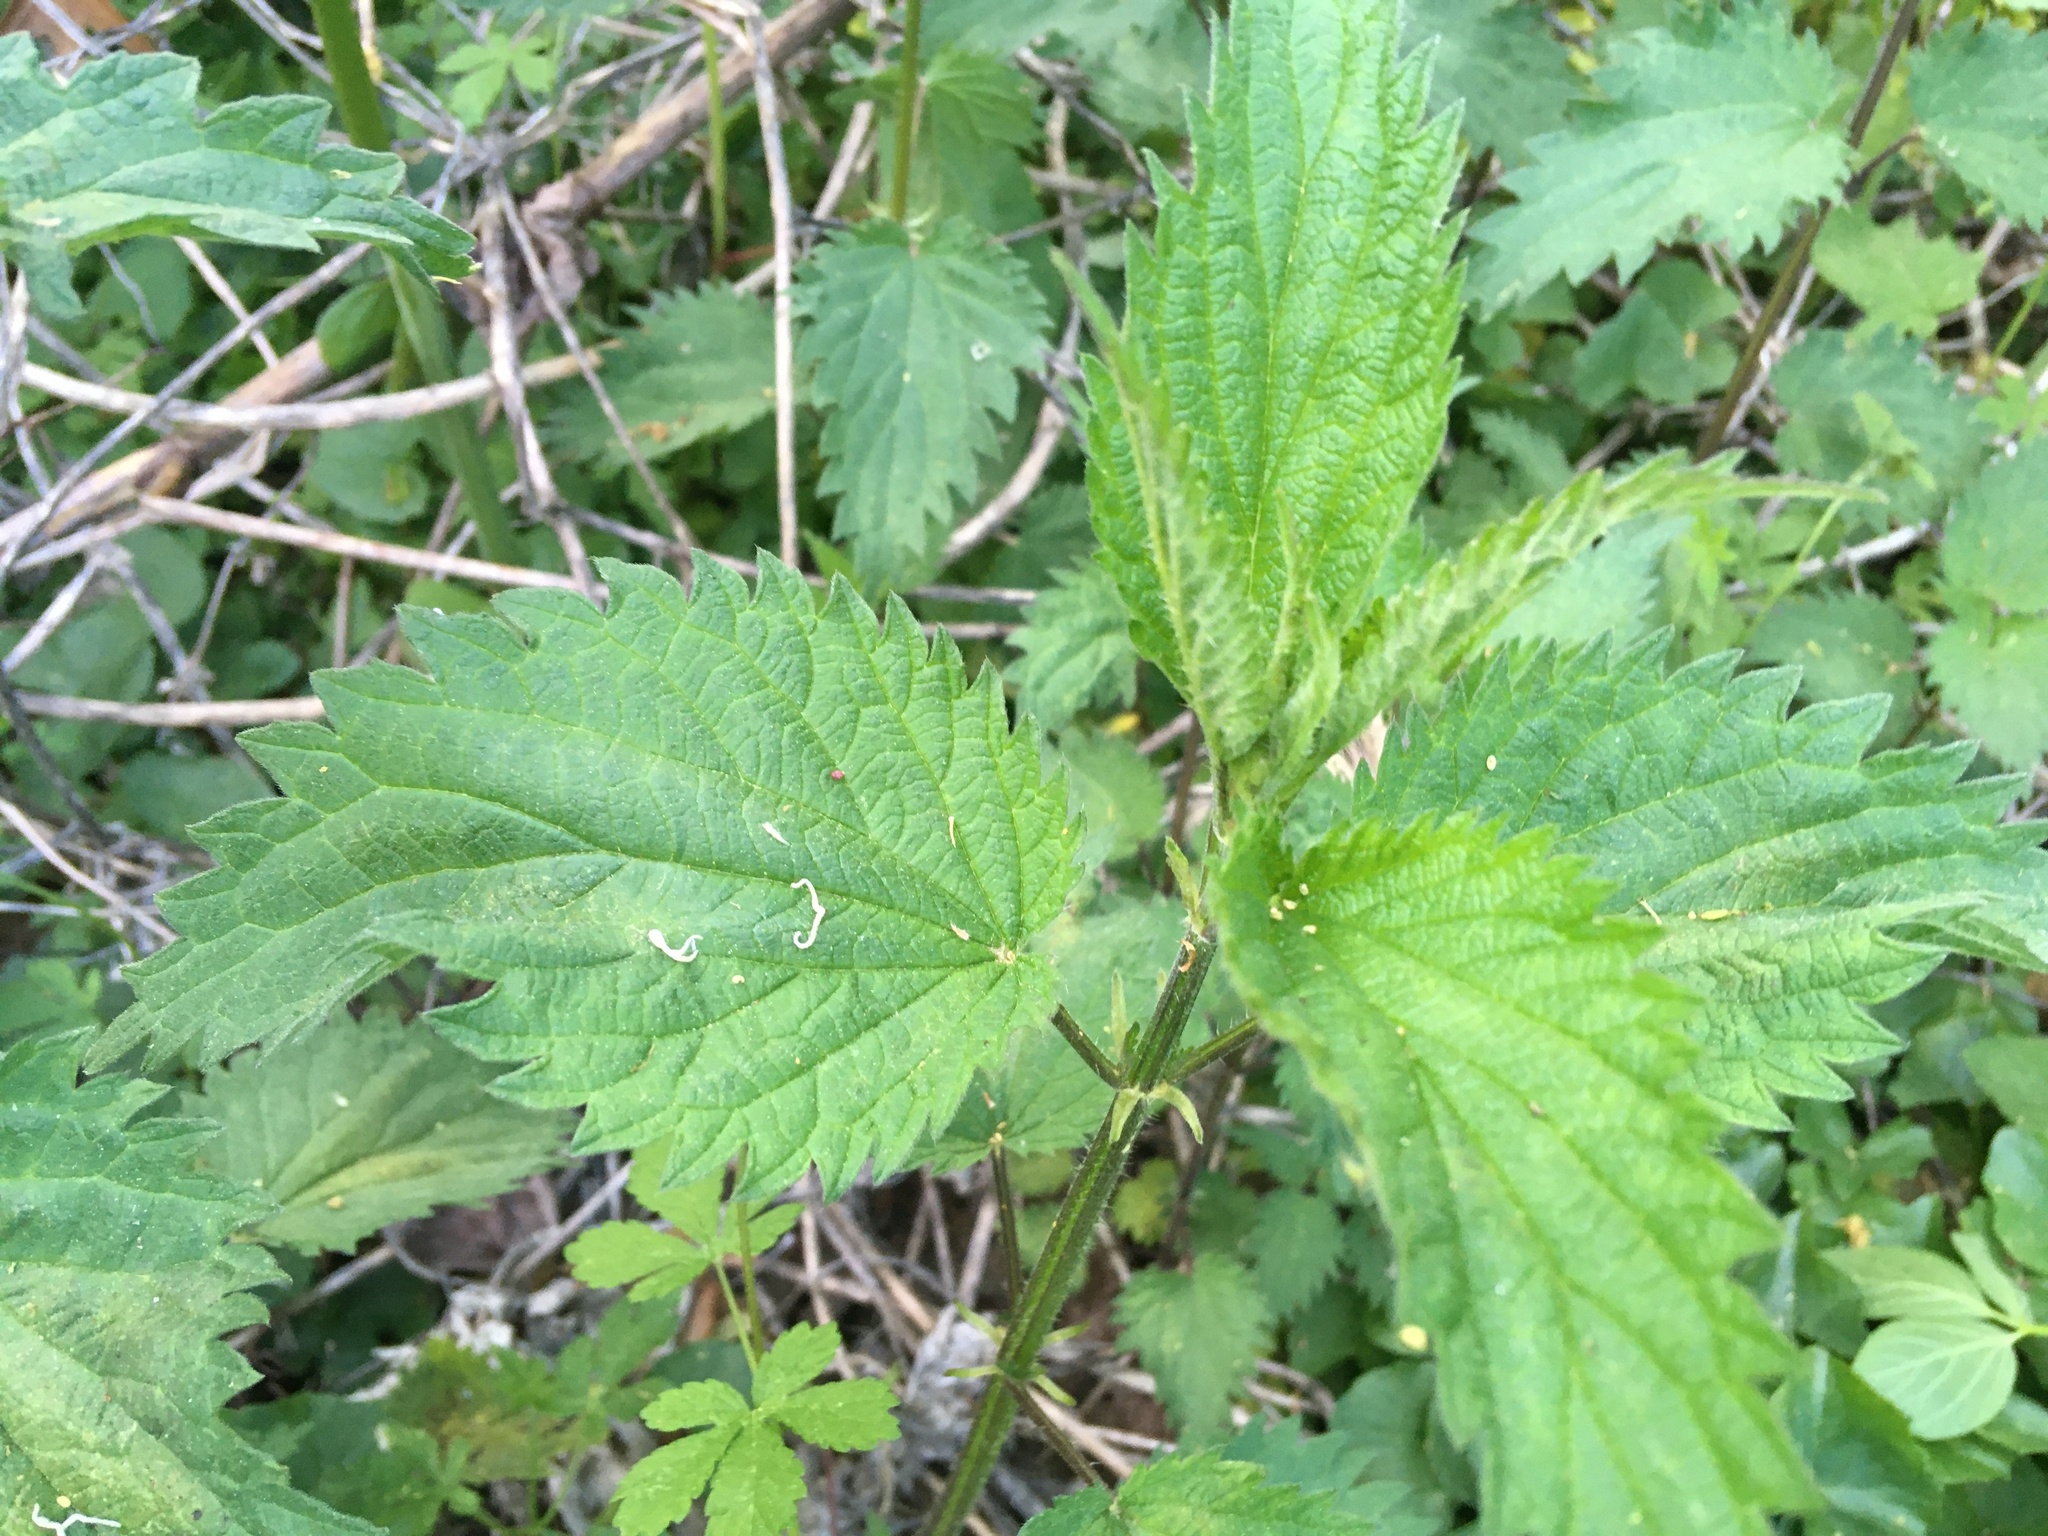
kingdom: Plantae
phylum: Tracheophyta
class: Magnoliopsida
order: Rosales
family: Urticaceae
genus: Urtica
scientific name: Urtica dioica
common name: Common nettle
